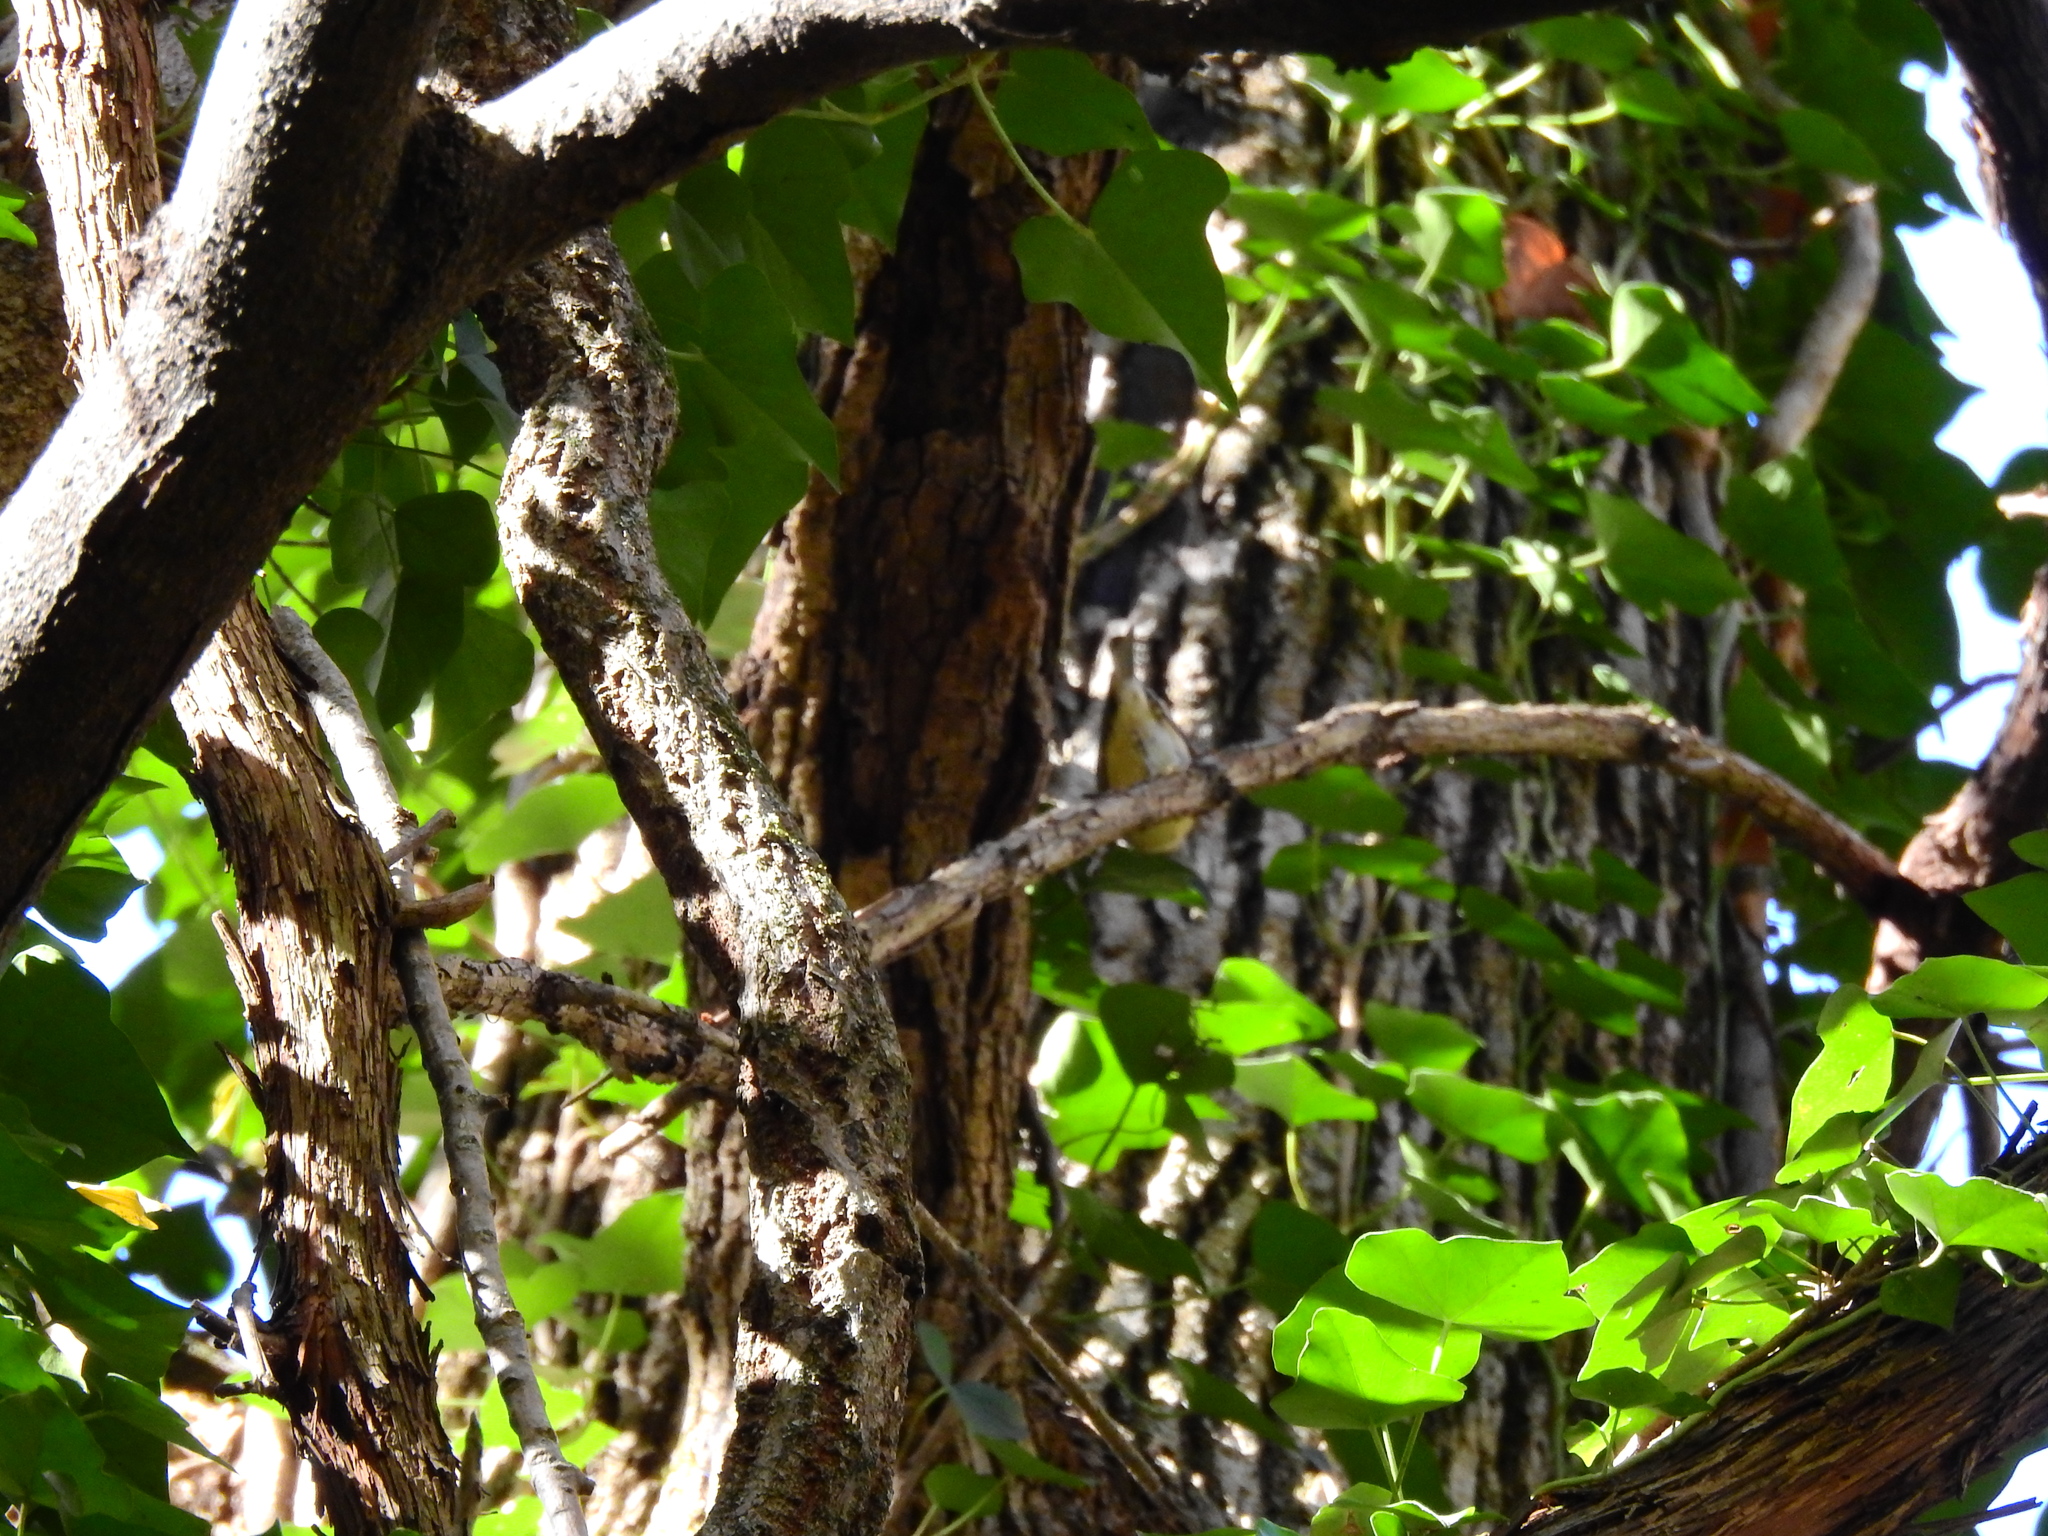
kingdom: Animalia
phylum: Chordata
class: Aves
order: Passeriformes
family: Regulidae
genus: Regulus
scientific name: Regulus calendula
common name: Ruby-crowned kinglet
